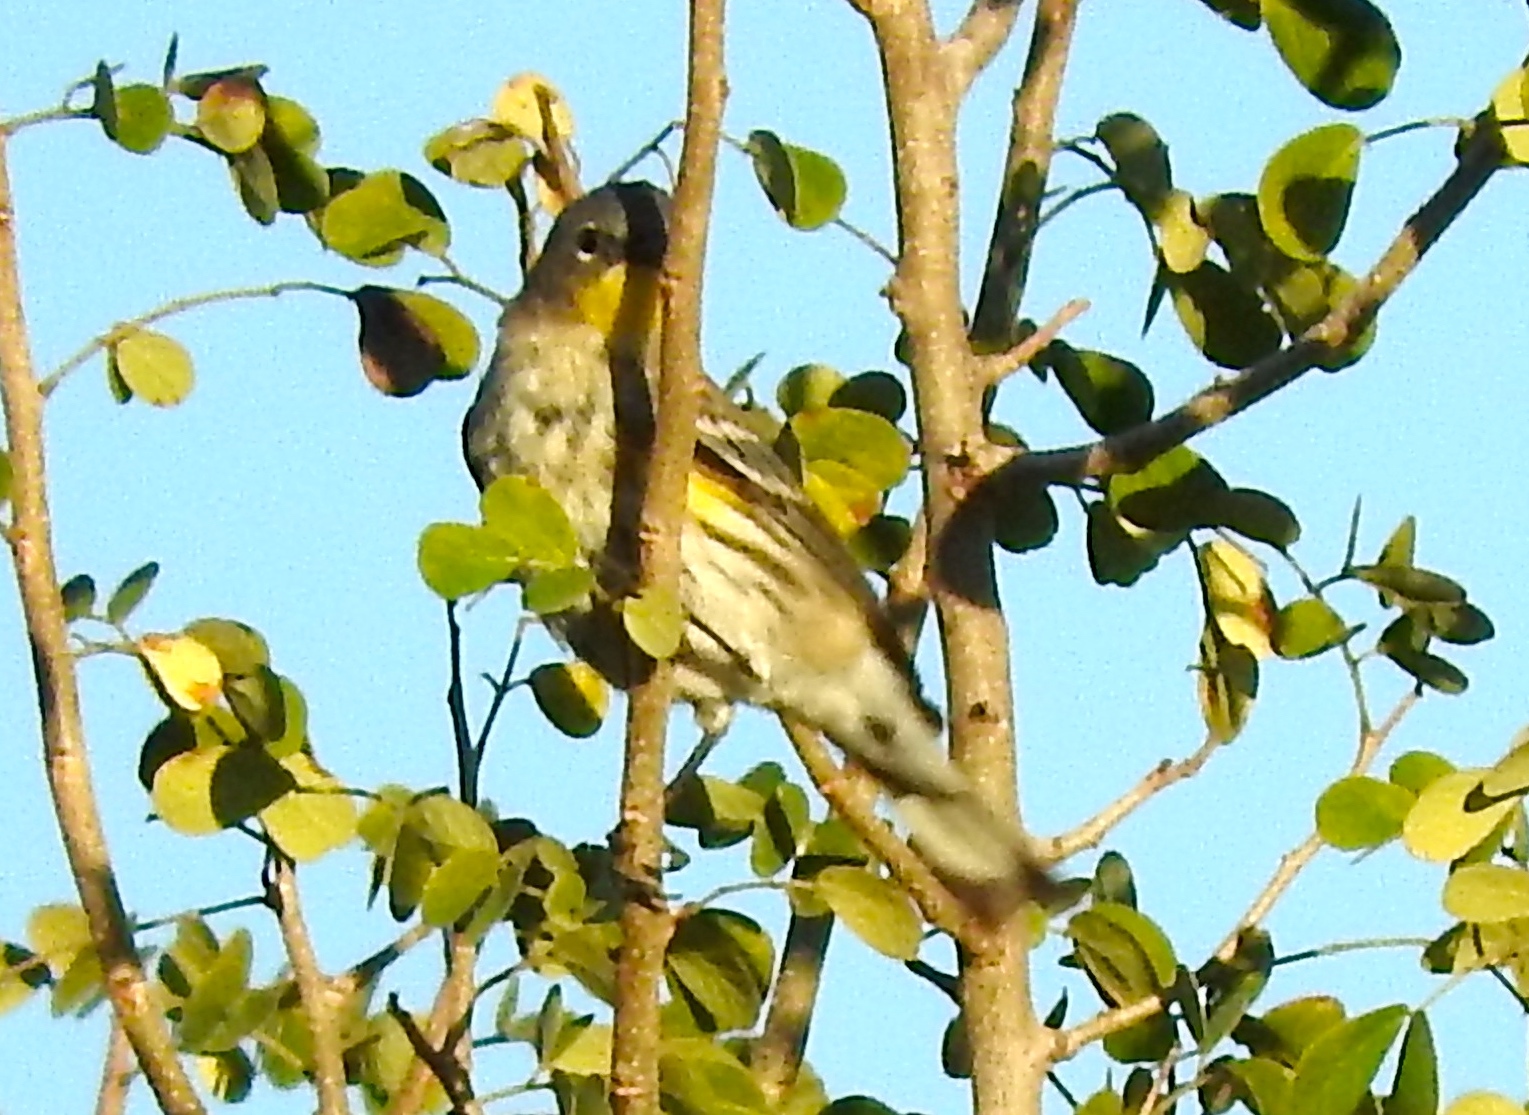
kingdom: Animalia
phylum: Chordata
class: Aves
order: Passeriformes
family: Parulidae
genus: Setophaga
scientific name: Setophaga auduboni
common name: Audubon's warbler
